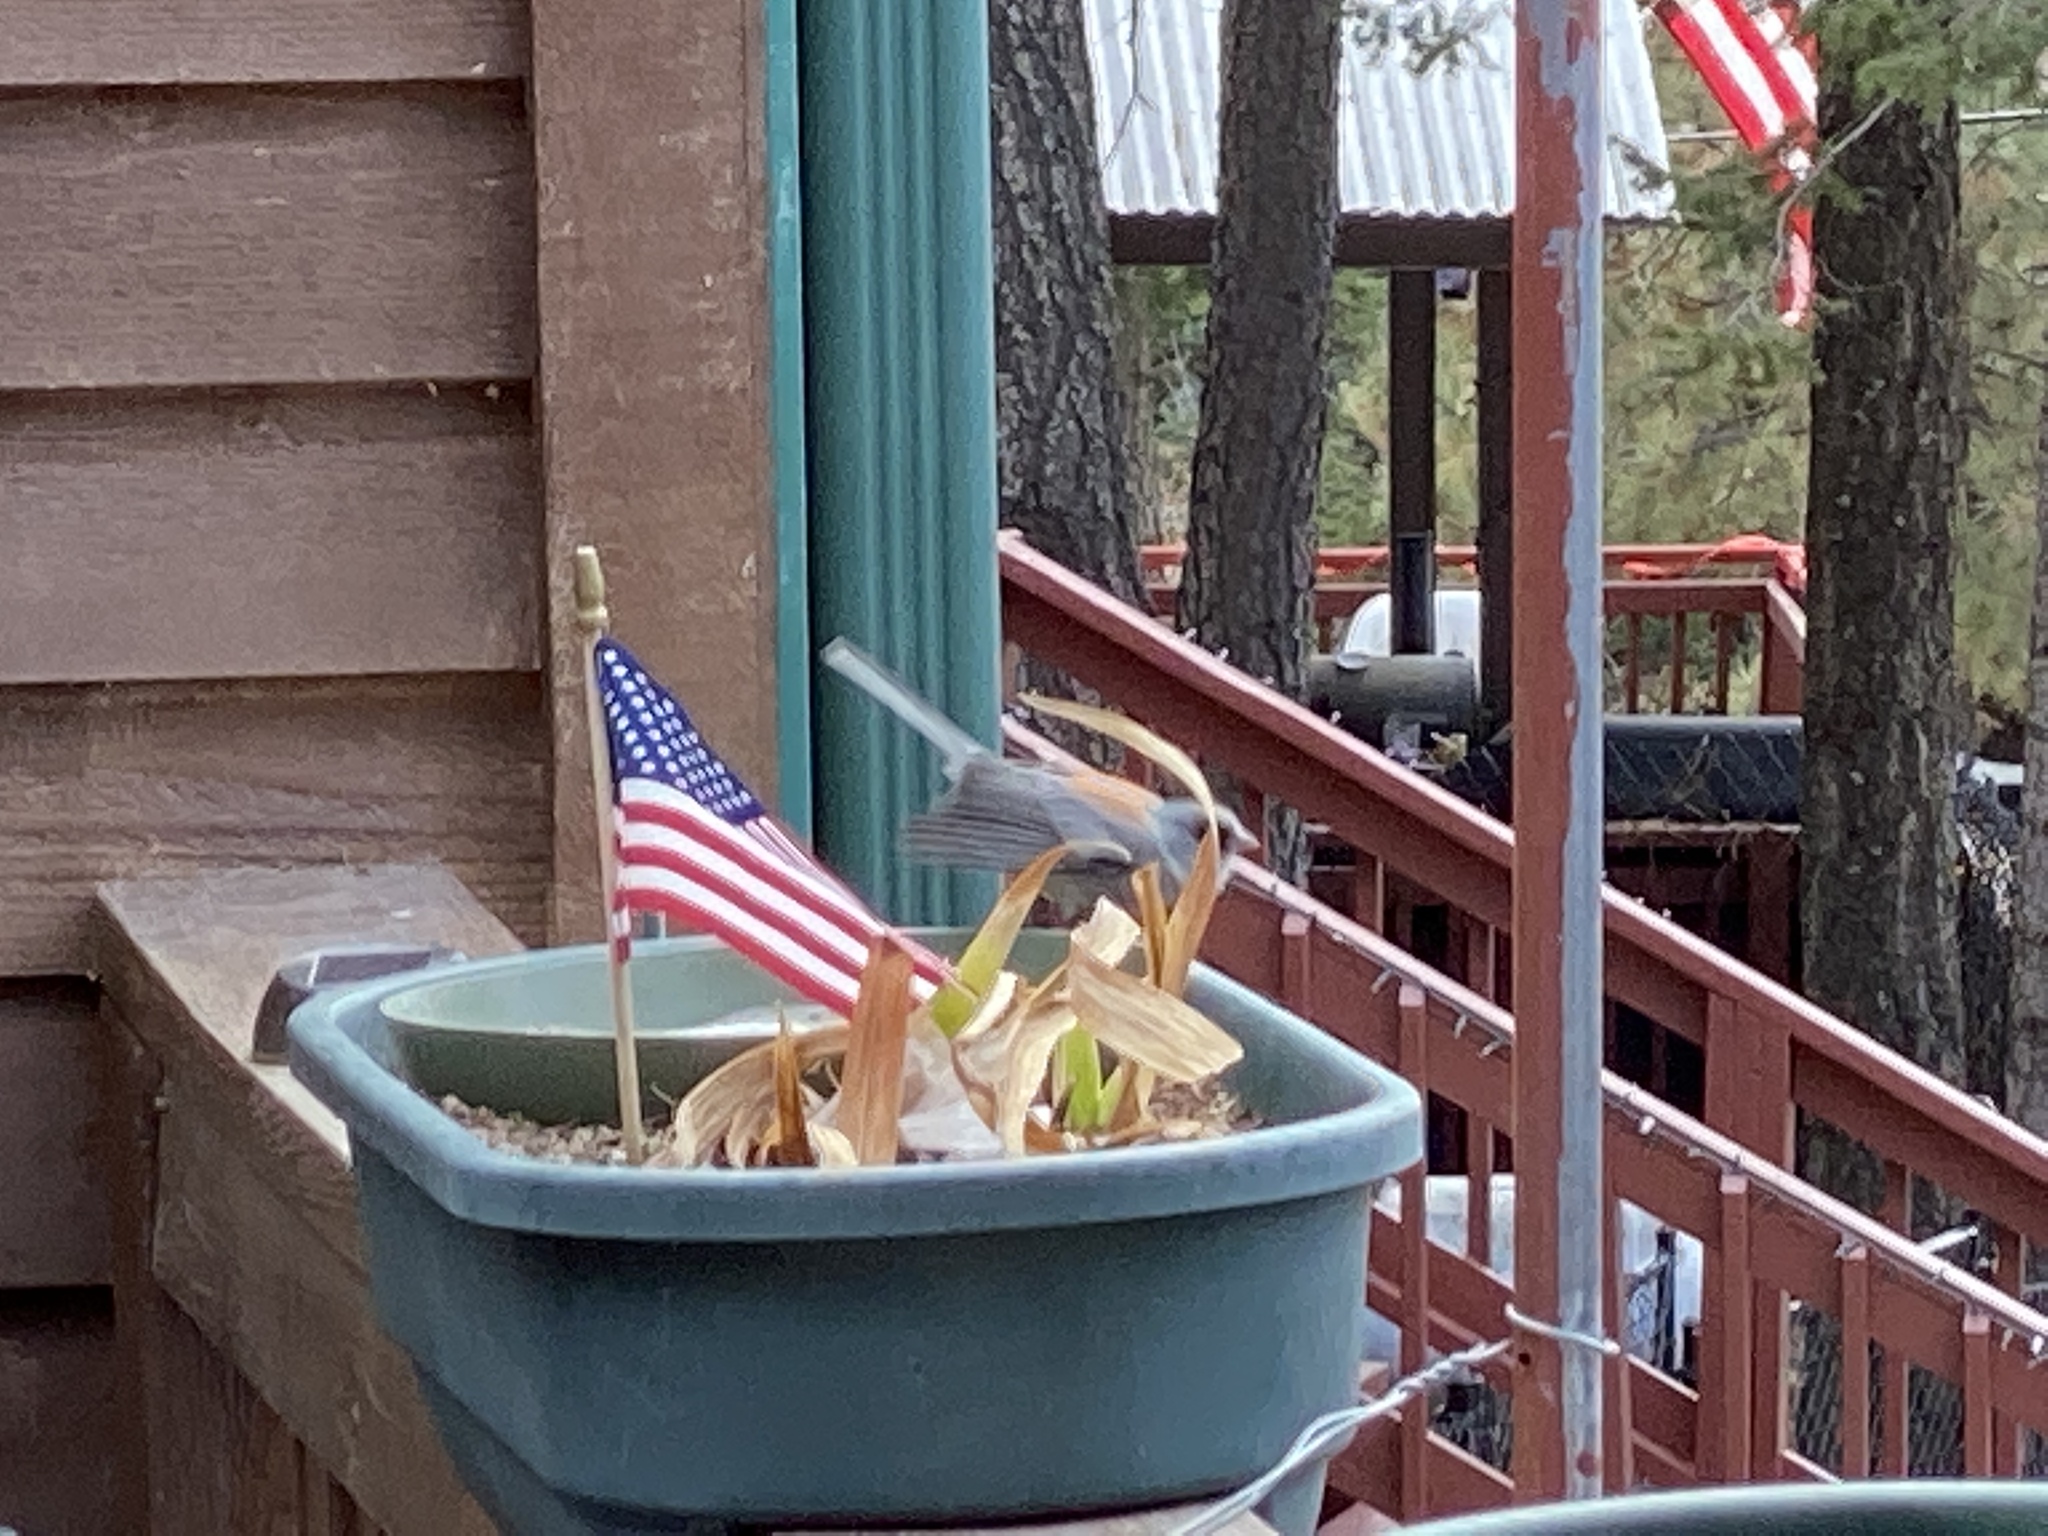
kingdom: Animalia
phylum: Chordata
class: Aves
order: Passeriformes
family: Passerellidae
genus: Junco
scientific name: Junco hyemalis
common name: Dark-eyed junco
